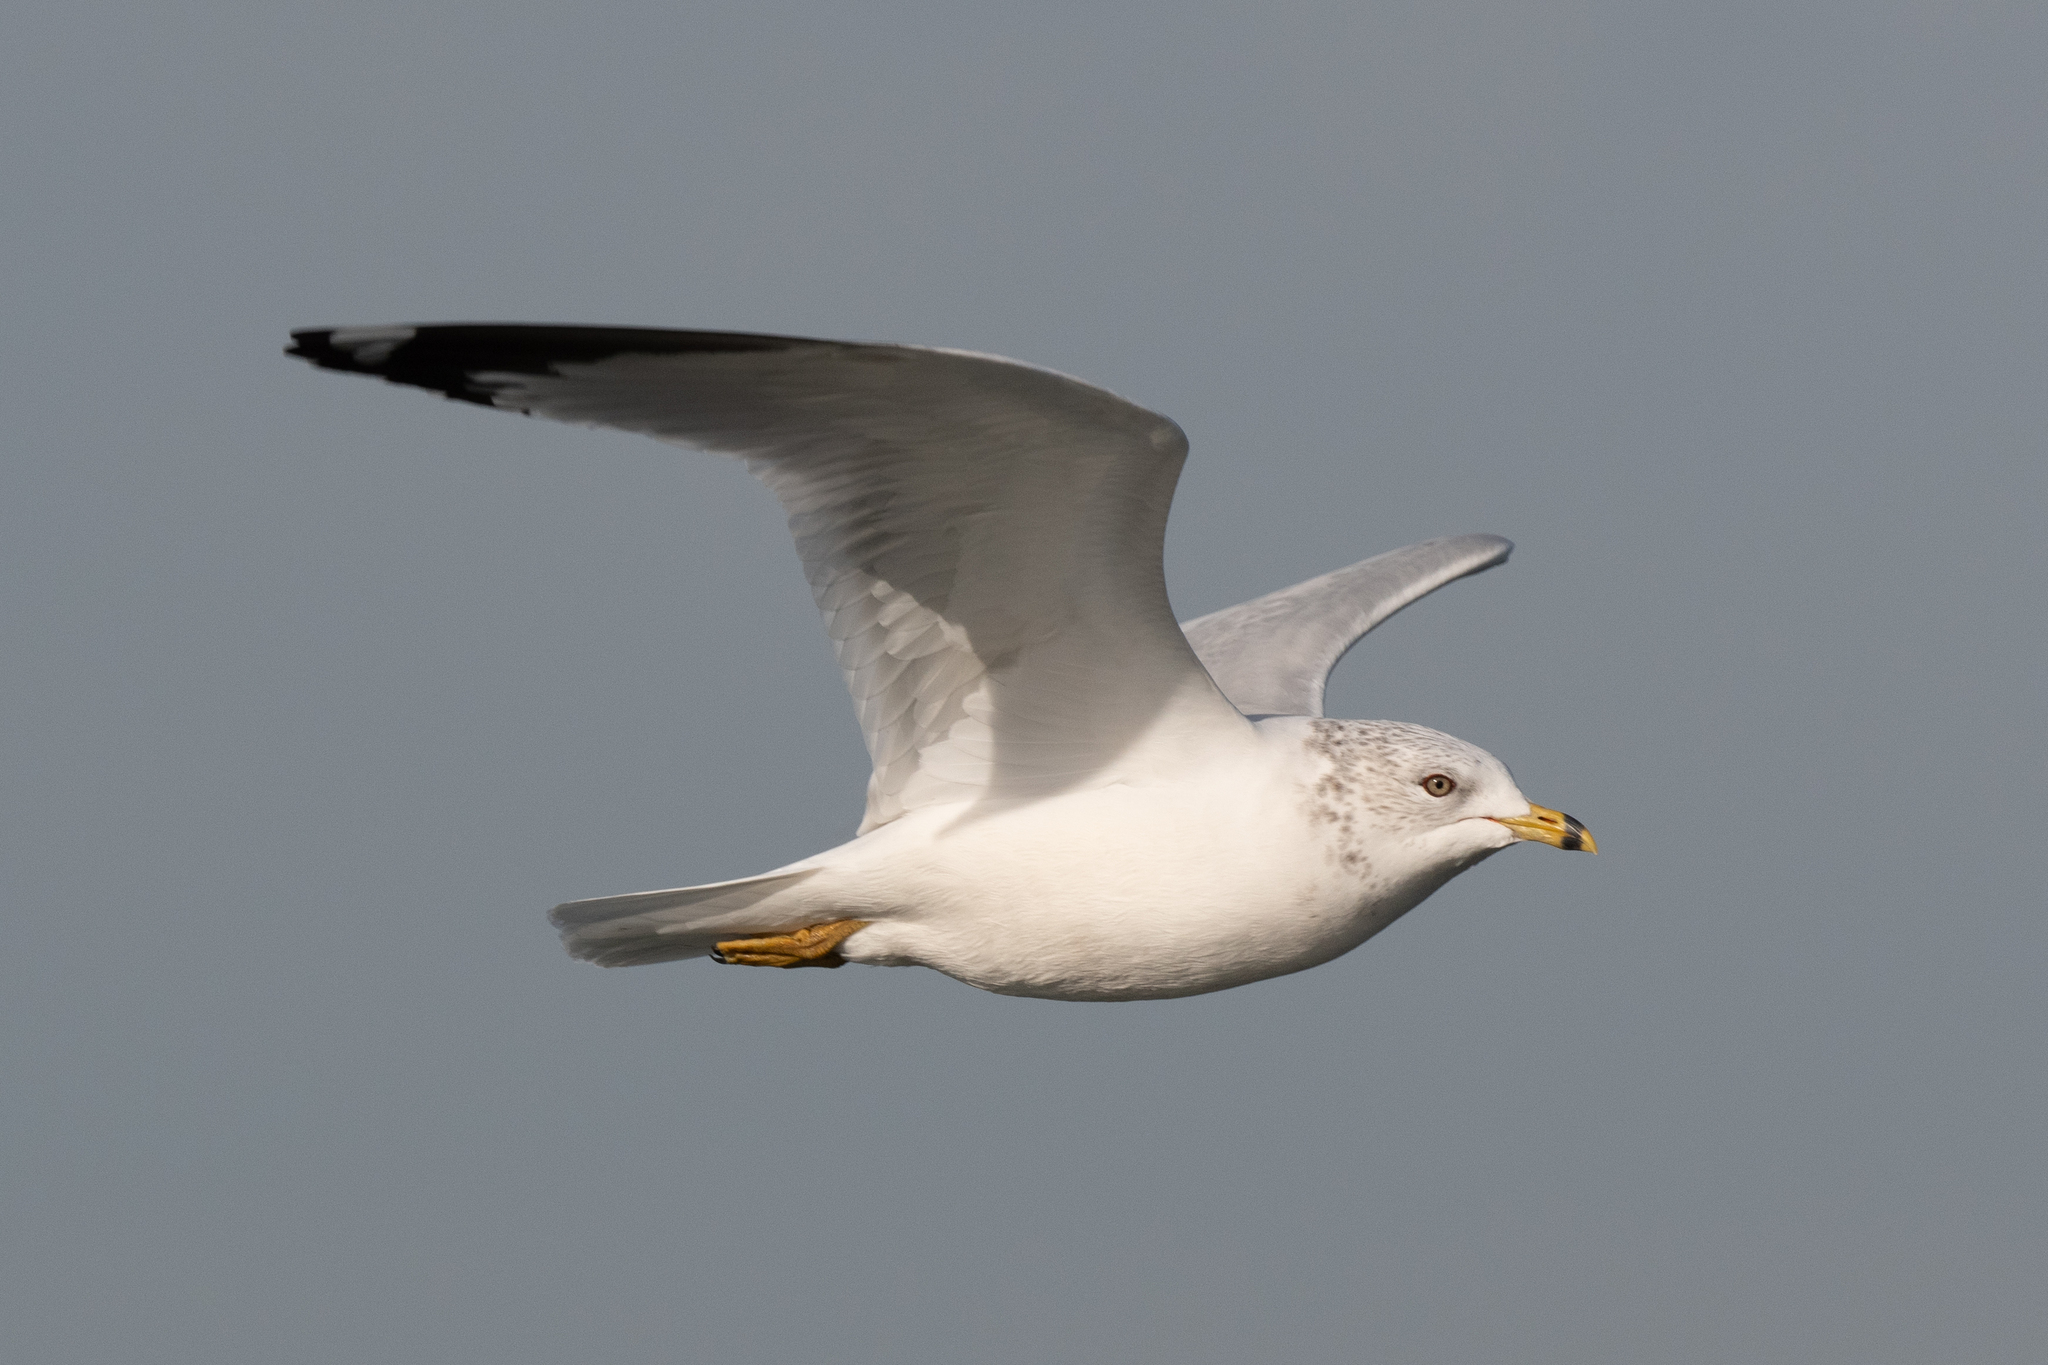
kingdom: Animalia
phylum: Chordata
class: Aves
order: Charadriiformes
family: Laridae
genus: Larus
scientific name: Larus delawarensis
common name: Ring-billed gull
